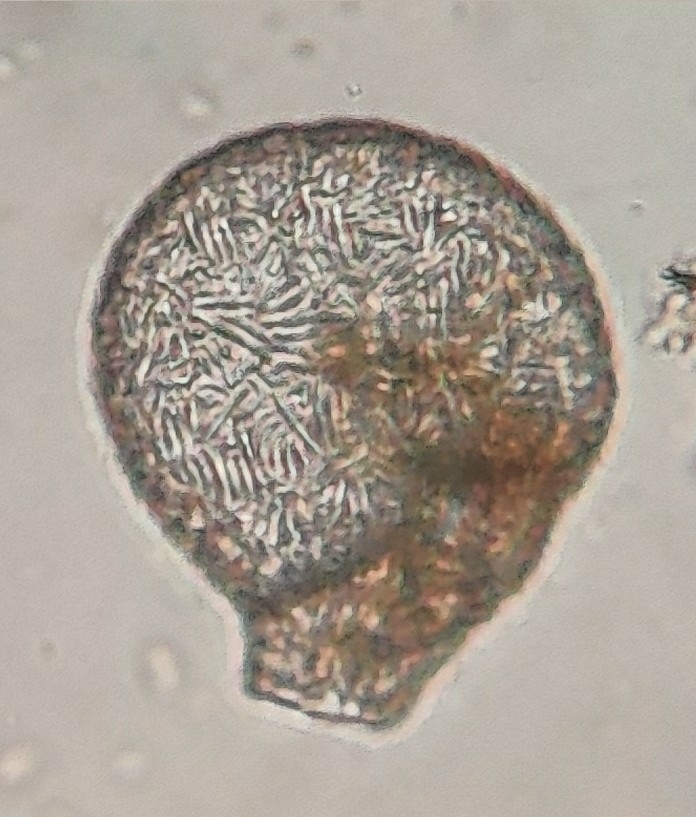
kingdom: Protozoa
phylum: Amoebozoa
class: Lobosa
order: Arcellinida
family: Lesquereusiidae
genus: Lesquereusia
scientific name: Lesquereusia spiralis
